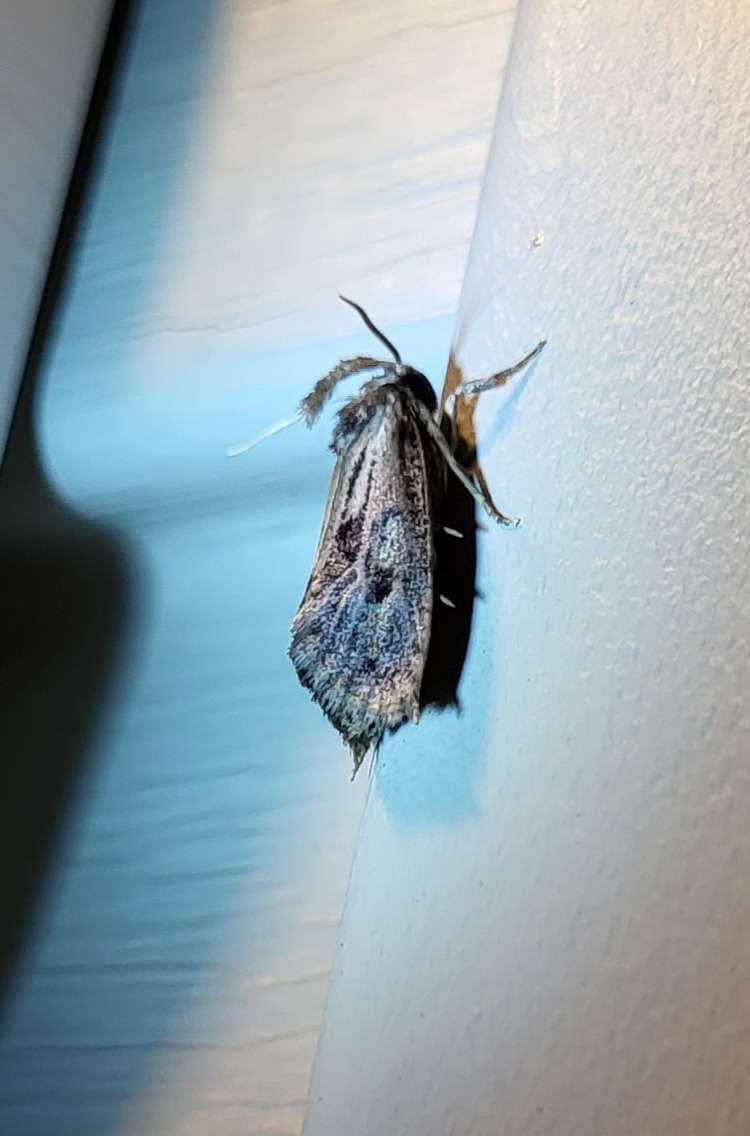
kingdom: Animalia
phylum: Arthropoda
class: Insecta
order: Lepidoptera
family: Tineidae
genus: Acrolophus
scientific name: Acrolophus popeanella
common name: Clemens' grass tubeworm moth
